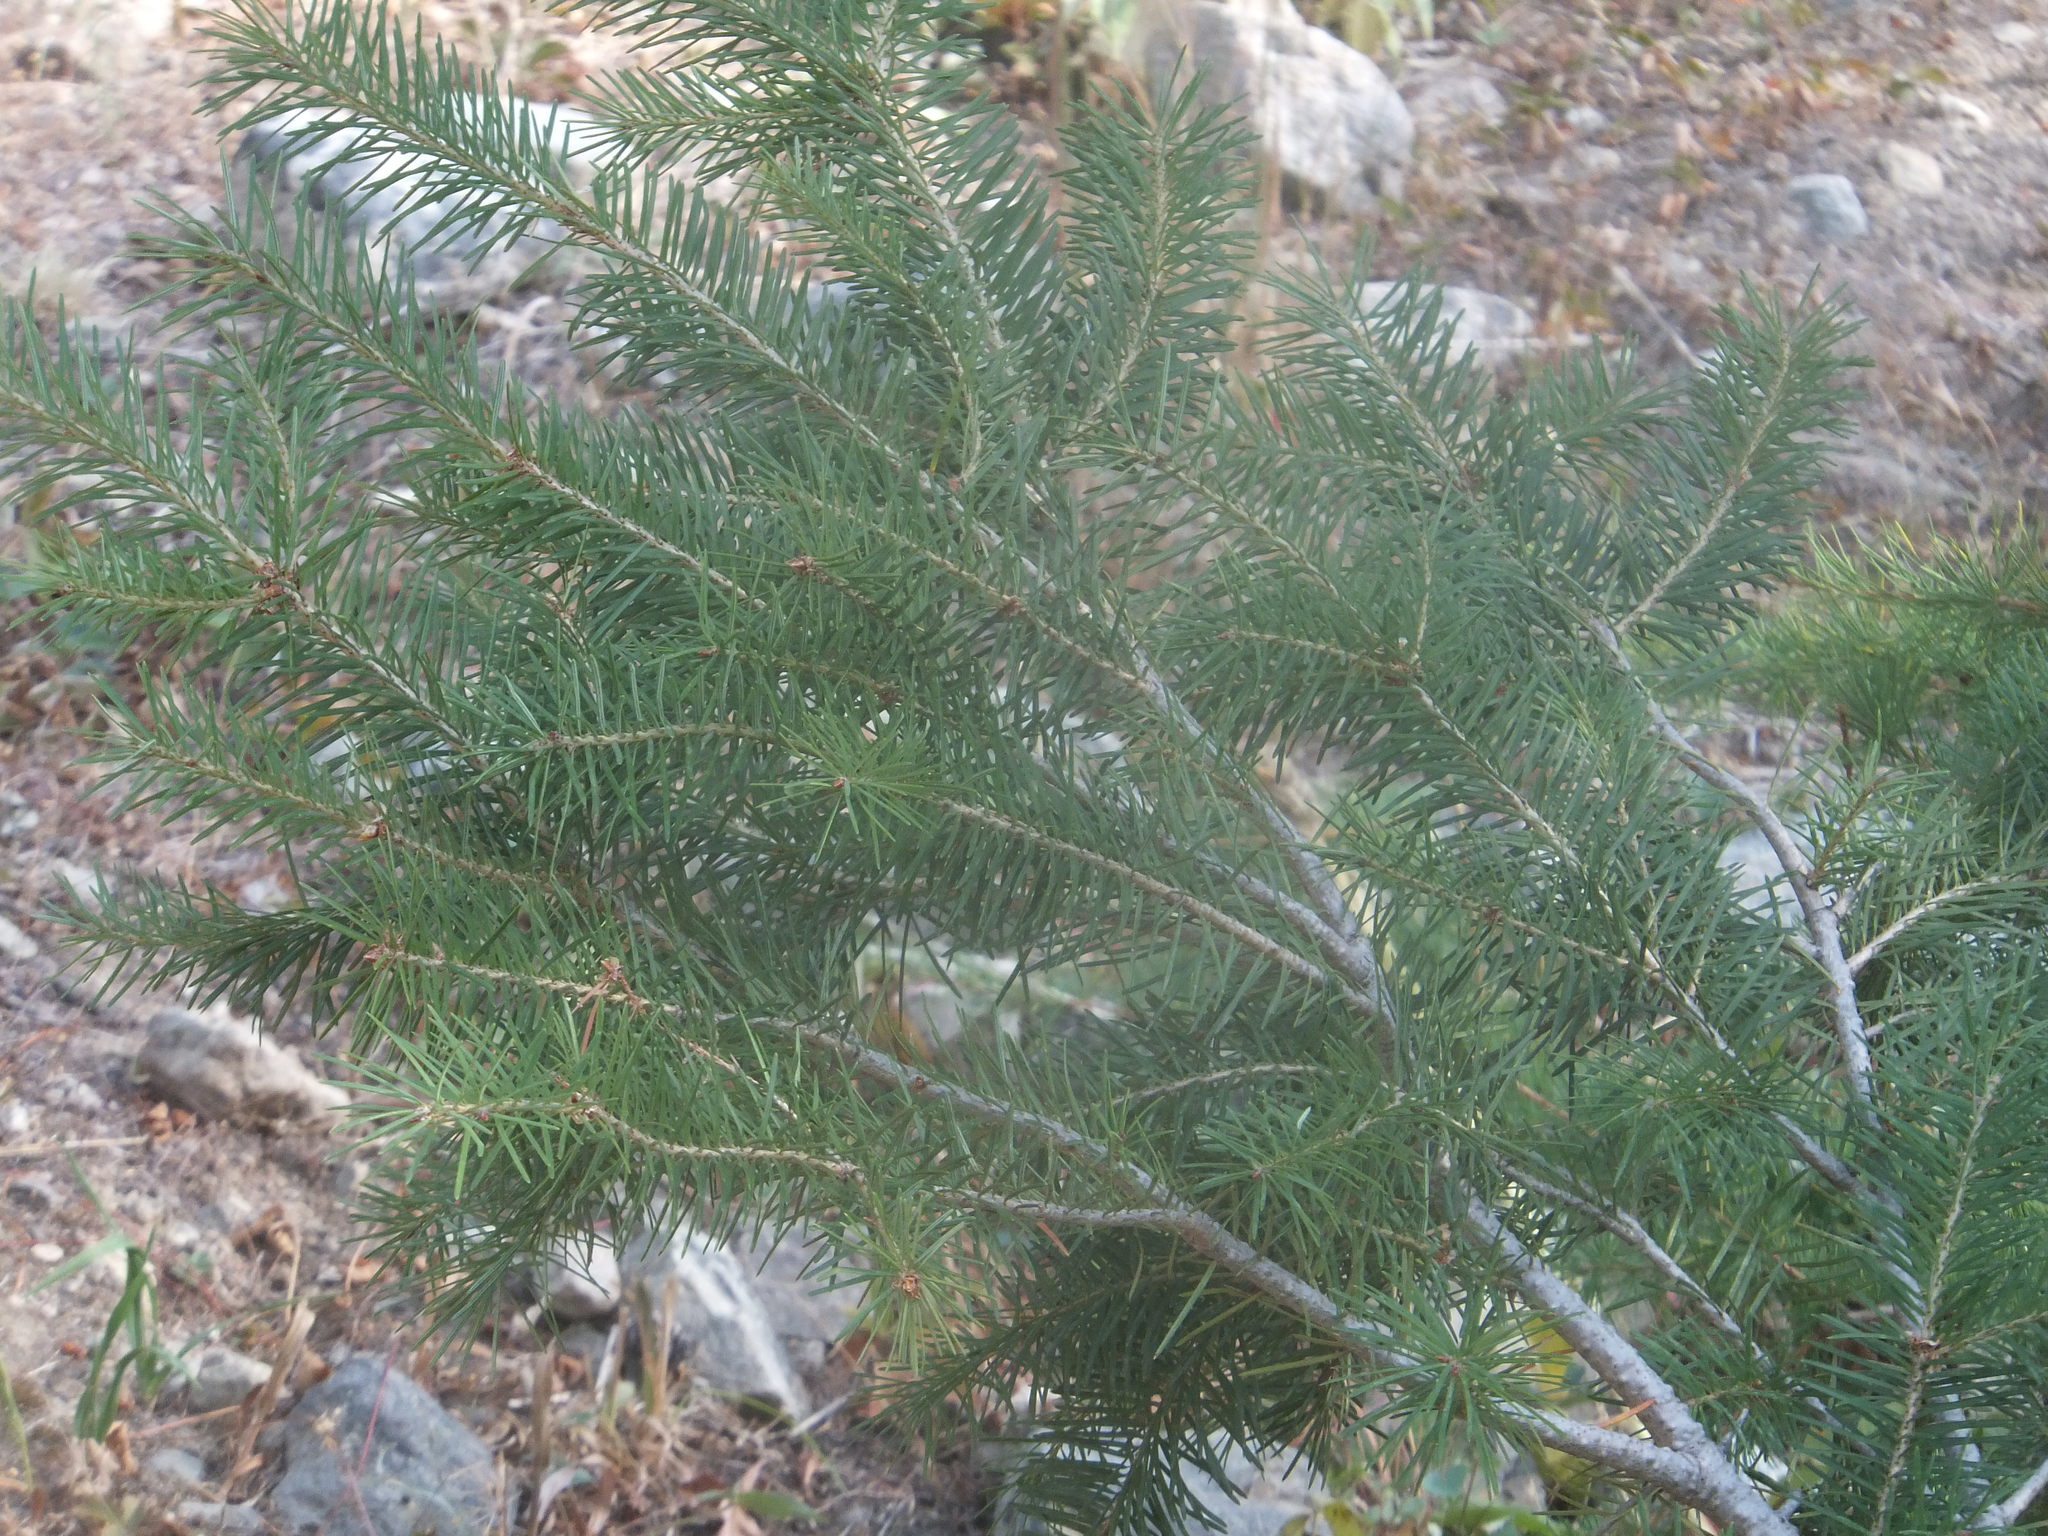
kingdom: Plantae
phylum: Tracheophyta
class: Pinopsida
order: Pinales
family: Pinaceae
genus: Pseudotsuga
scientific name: Pseudotsuga menziesii
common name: Douglas fir
